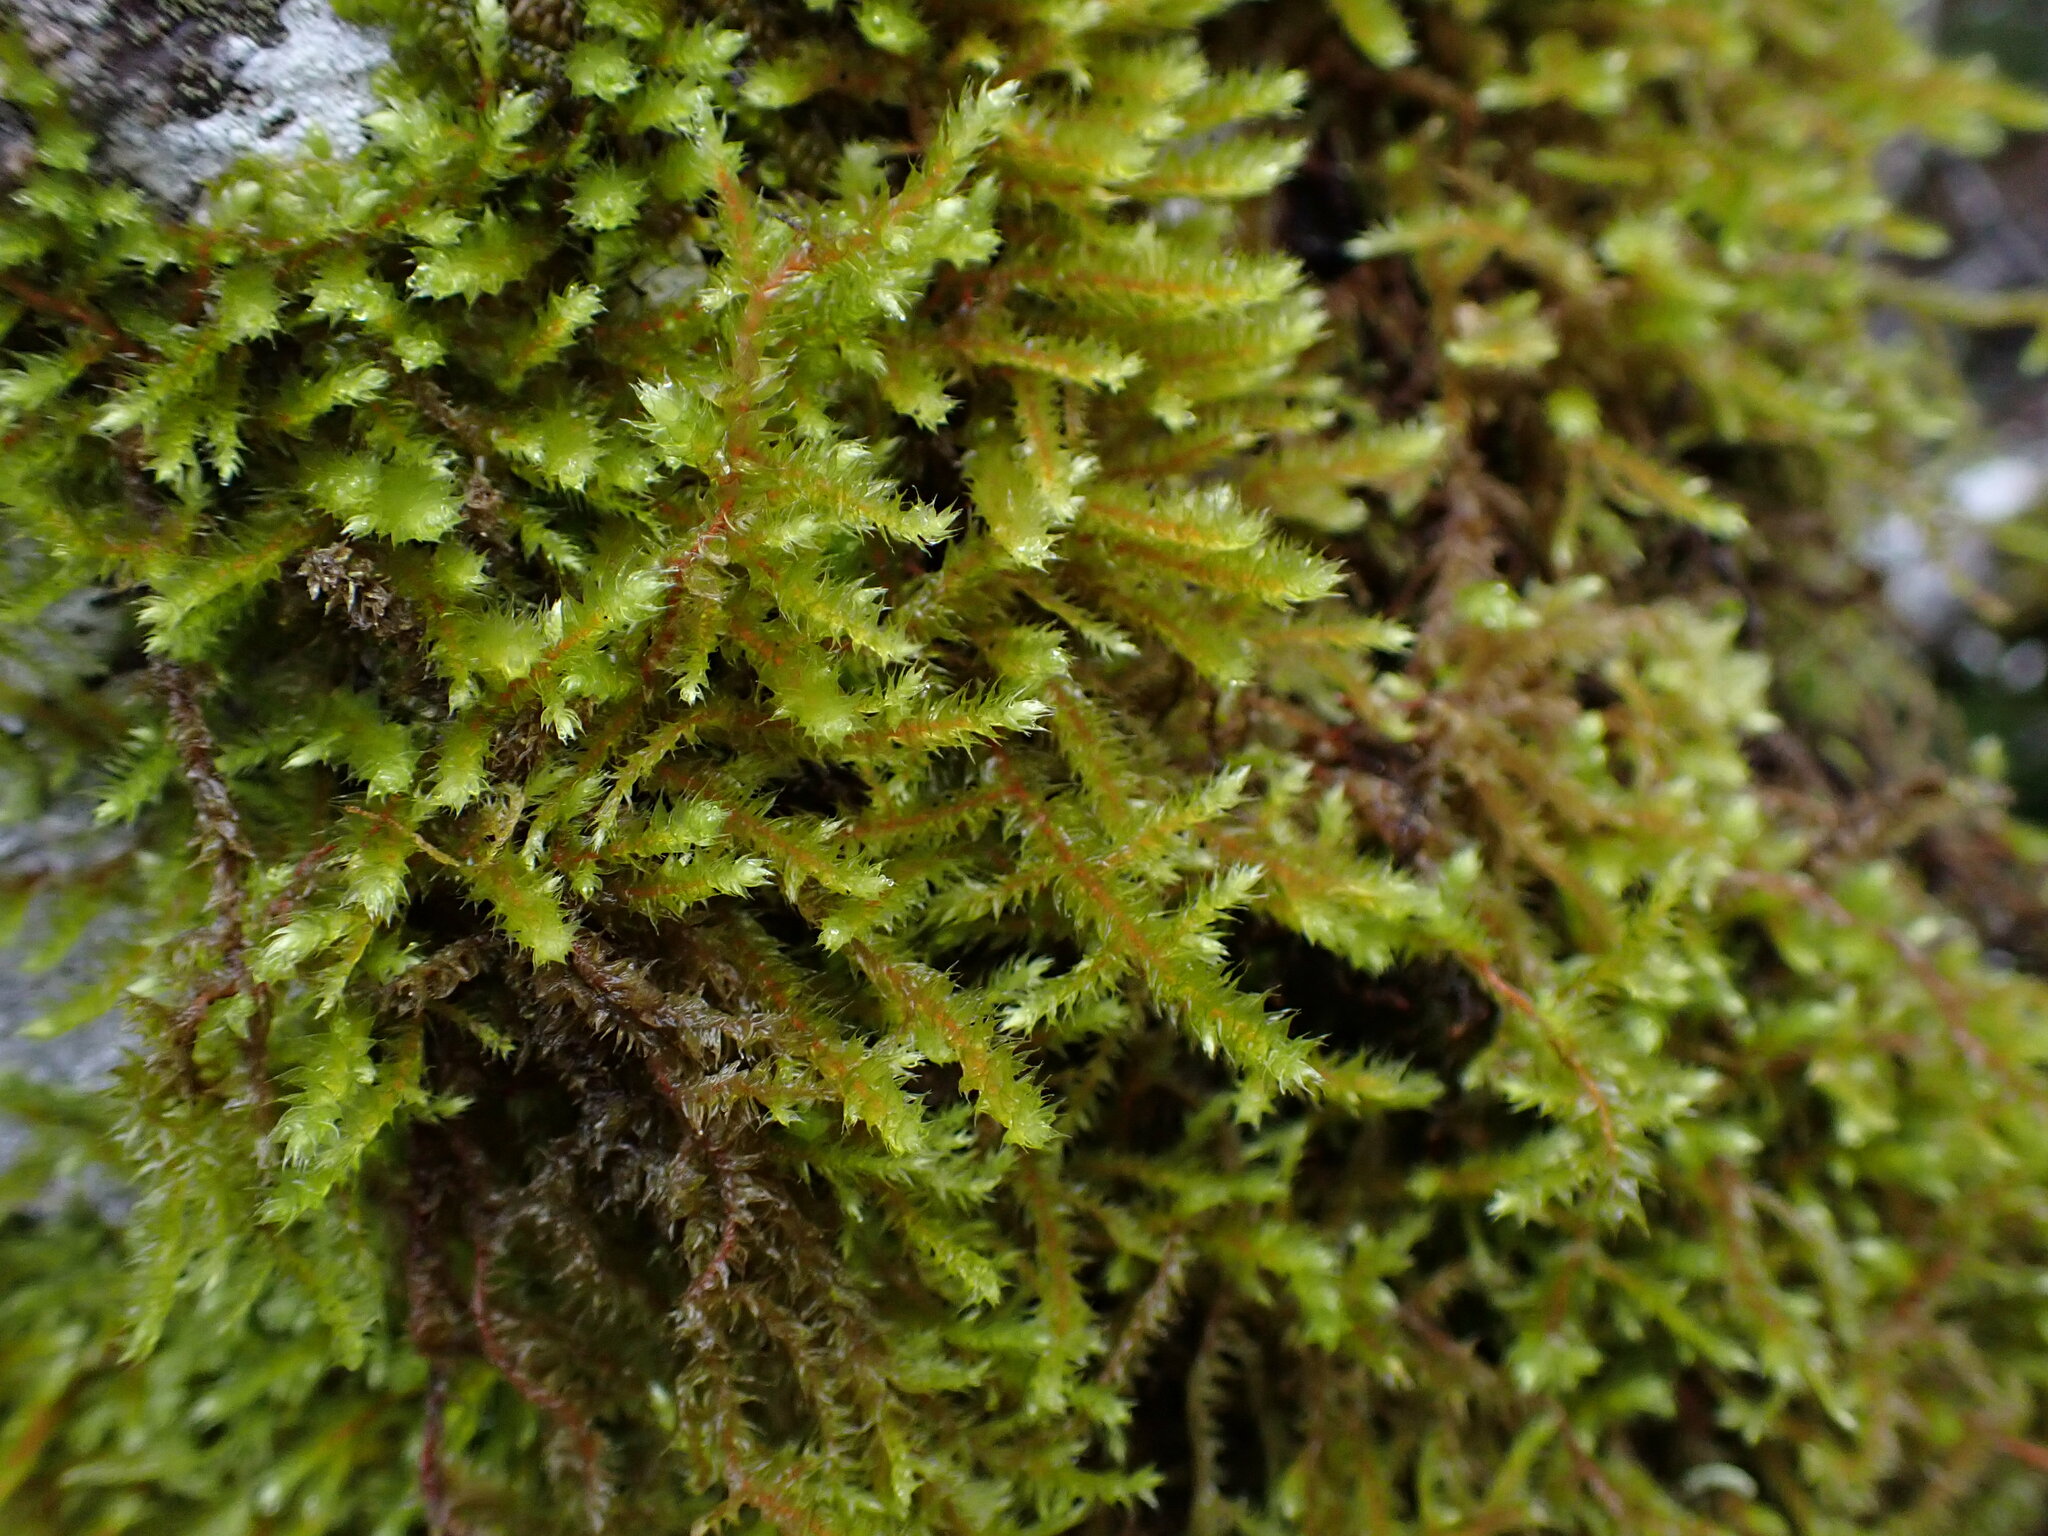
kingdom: Plantae
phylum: Bryophyta
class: Bryopsida
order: Hypnales
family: Antitrichiaceae
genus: Antitrichia
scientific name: Antitrichia curtipendula
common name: Pendulous wing-moss
